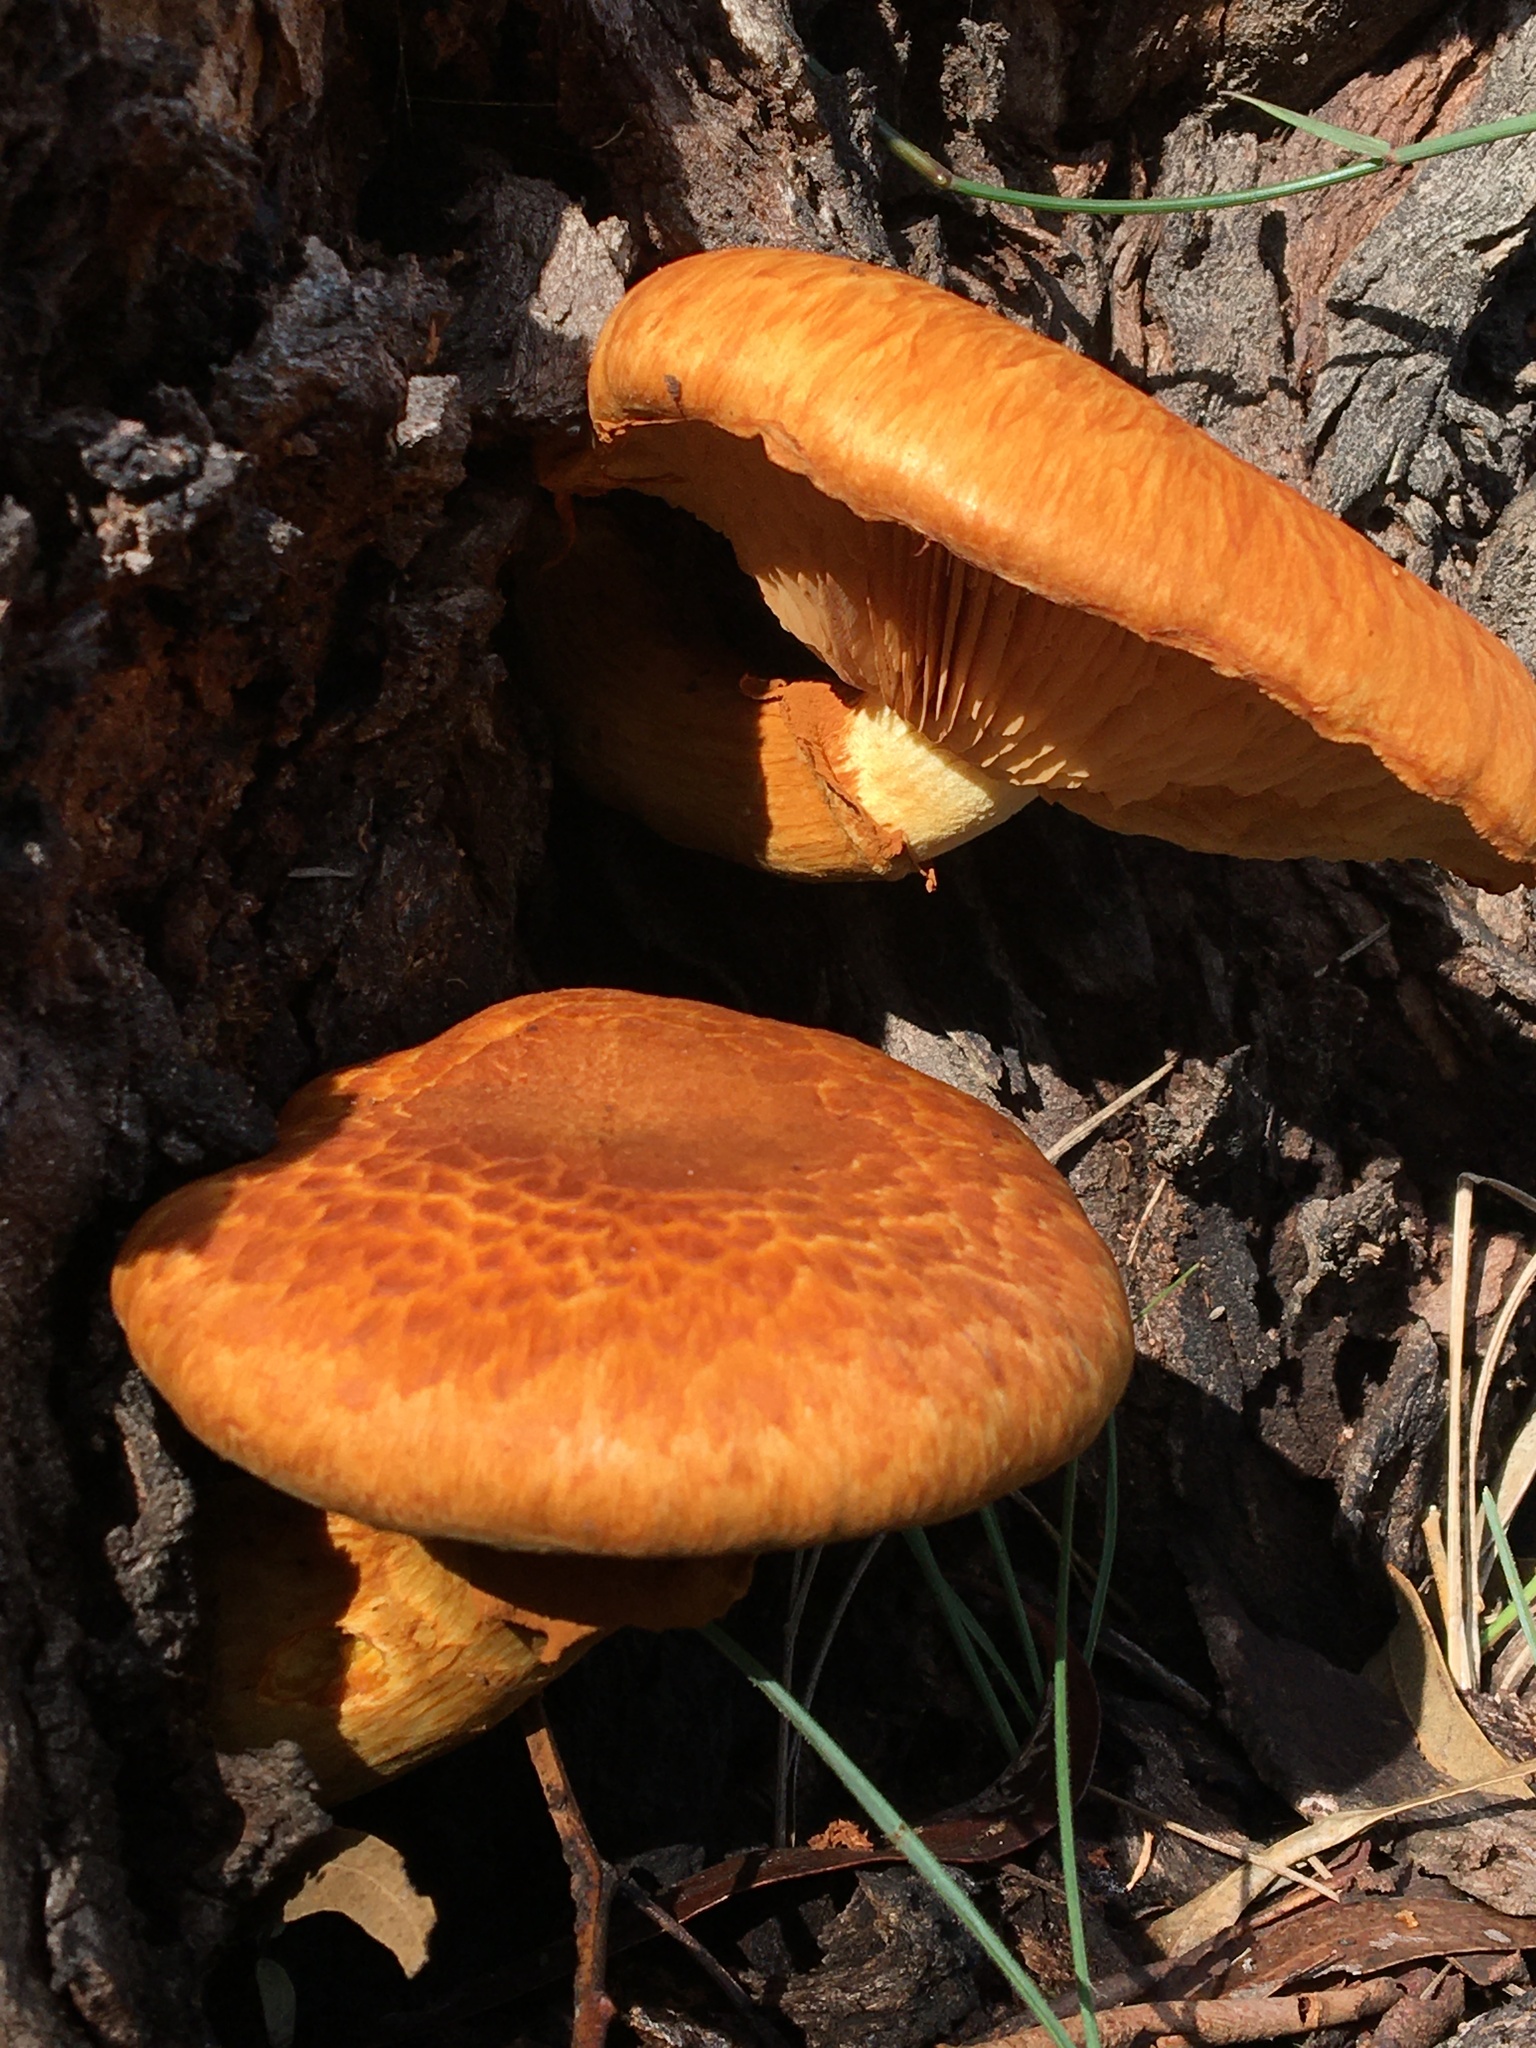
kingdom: Fungi
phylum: Basidiomycota
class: Agaricomycetes
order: Agaricales
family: Hymenogastraceae
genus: Gymnopilus
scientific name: Gymnopilus junonius
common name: Spectacular rustgill
